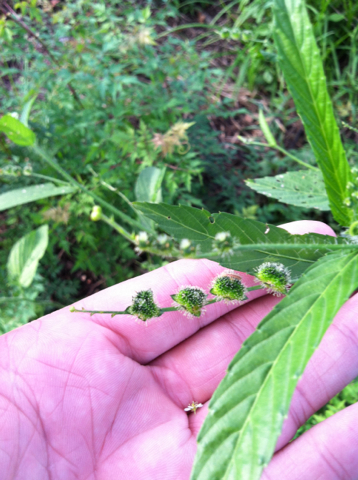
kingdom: Plantae
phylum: Tracheophyta
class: Magnoliopsida
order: Malpighiales
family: Euphorbiaceae
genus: Caperonia
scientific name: Caperonia palustris
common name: Sacatrapo
